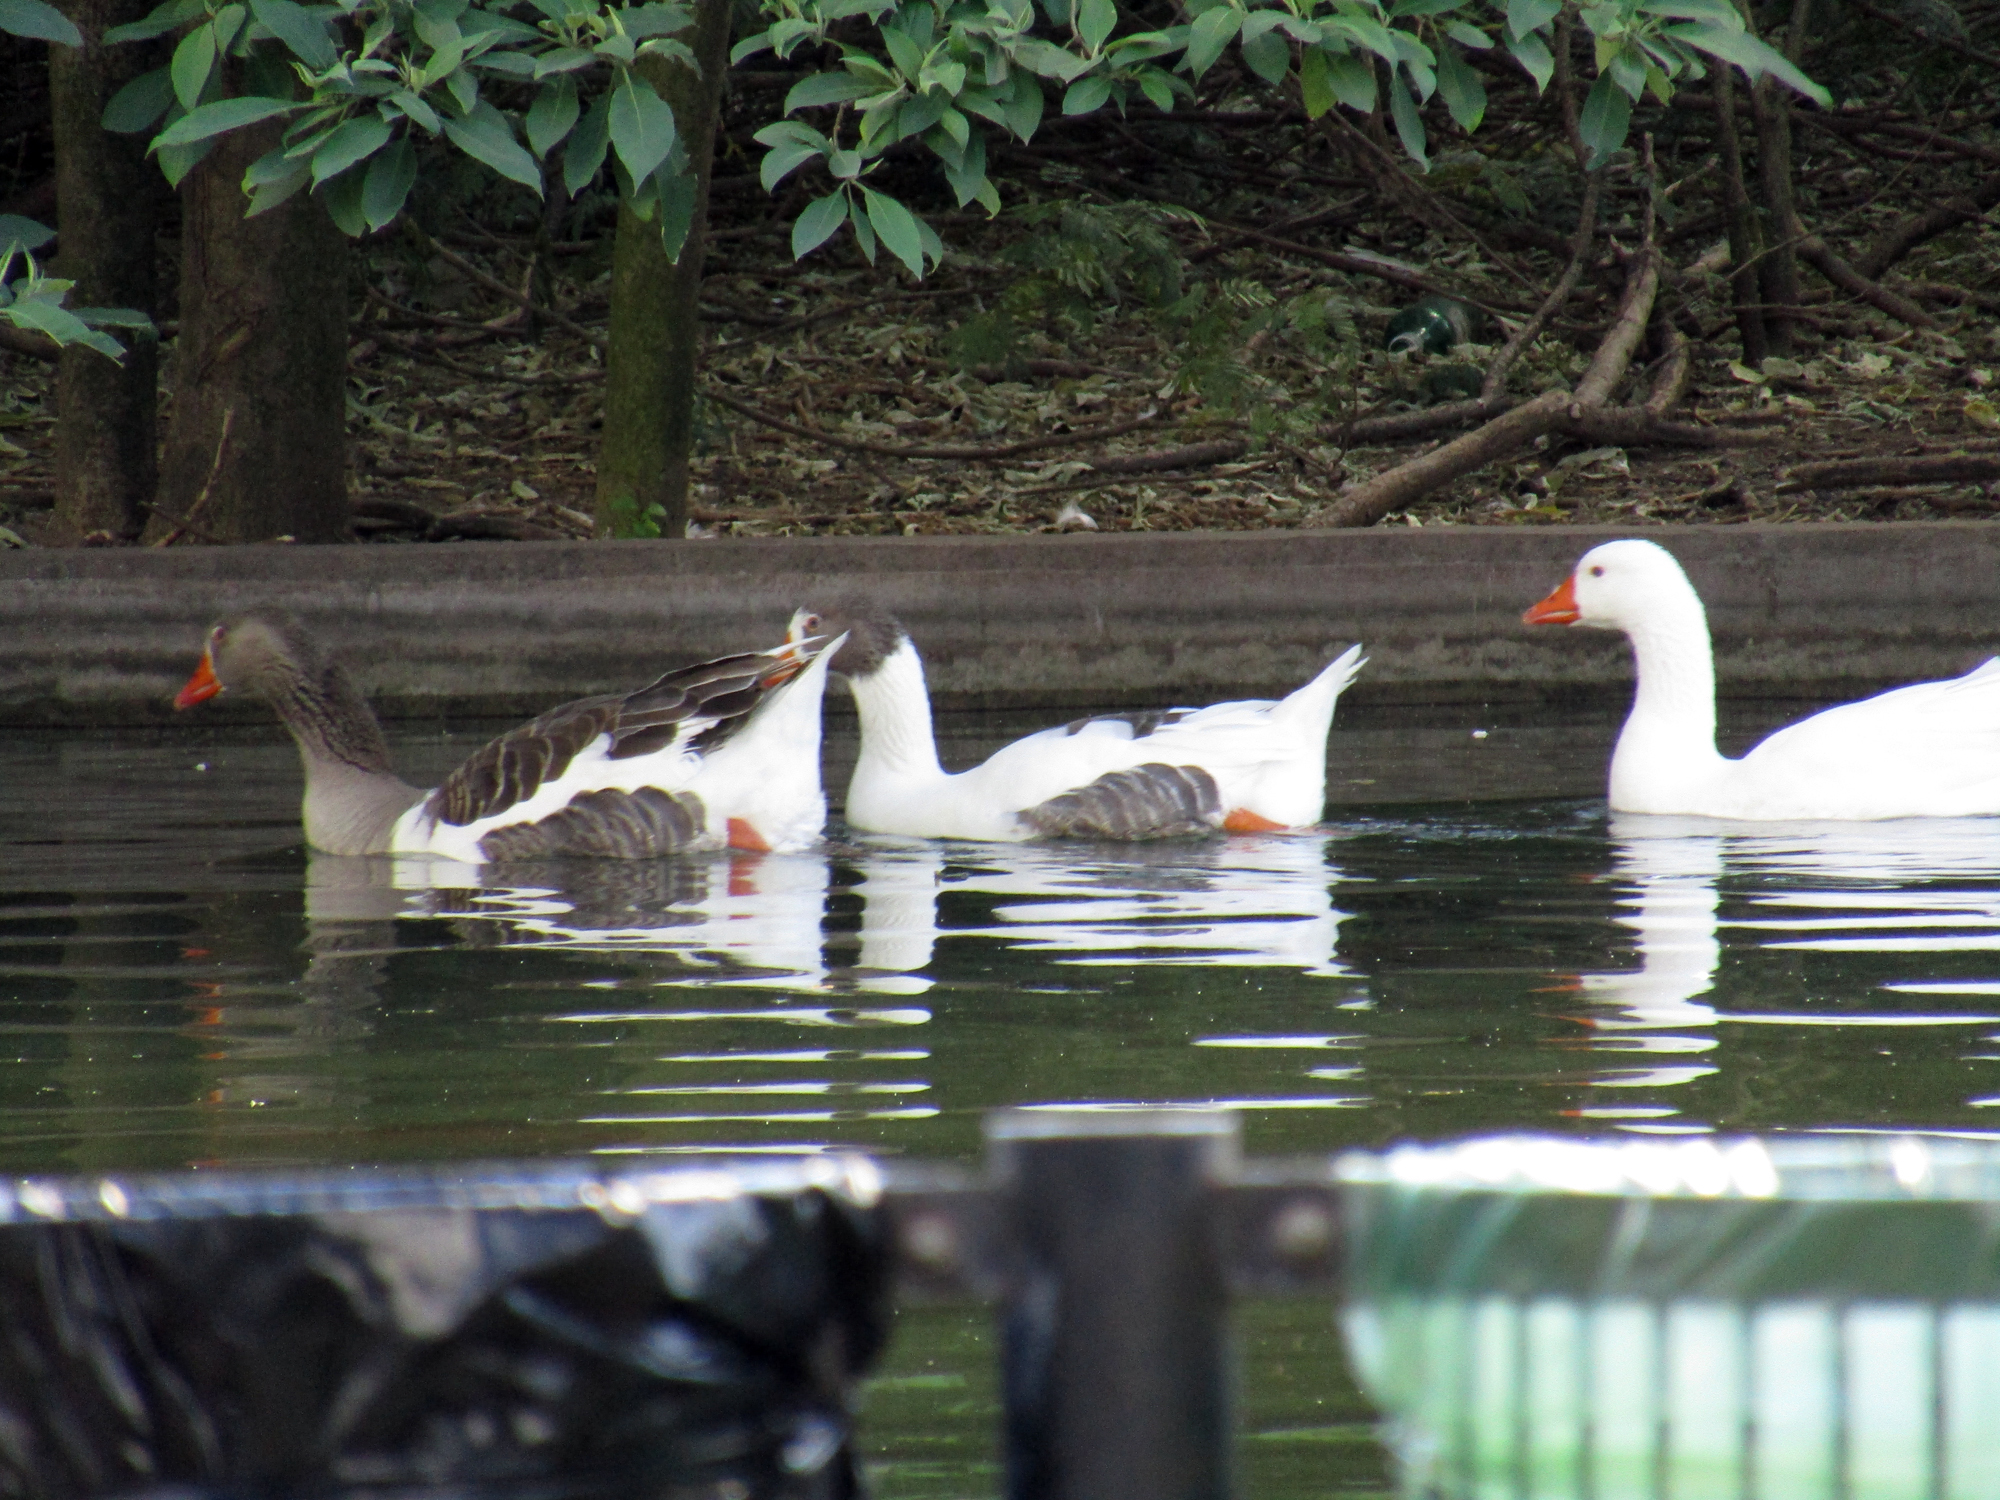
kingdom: Animalia
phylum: Chordata
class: Aves
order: Anseriformes
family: Anatidae
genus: Anser
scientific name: Anser anser
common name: Greylag goose
